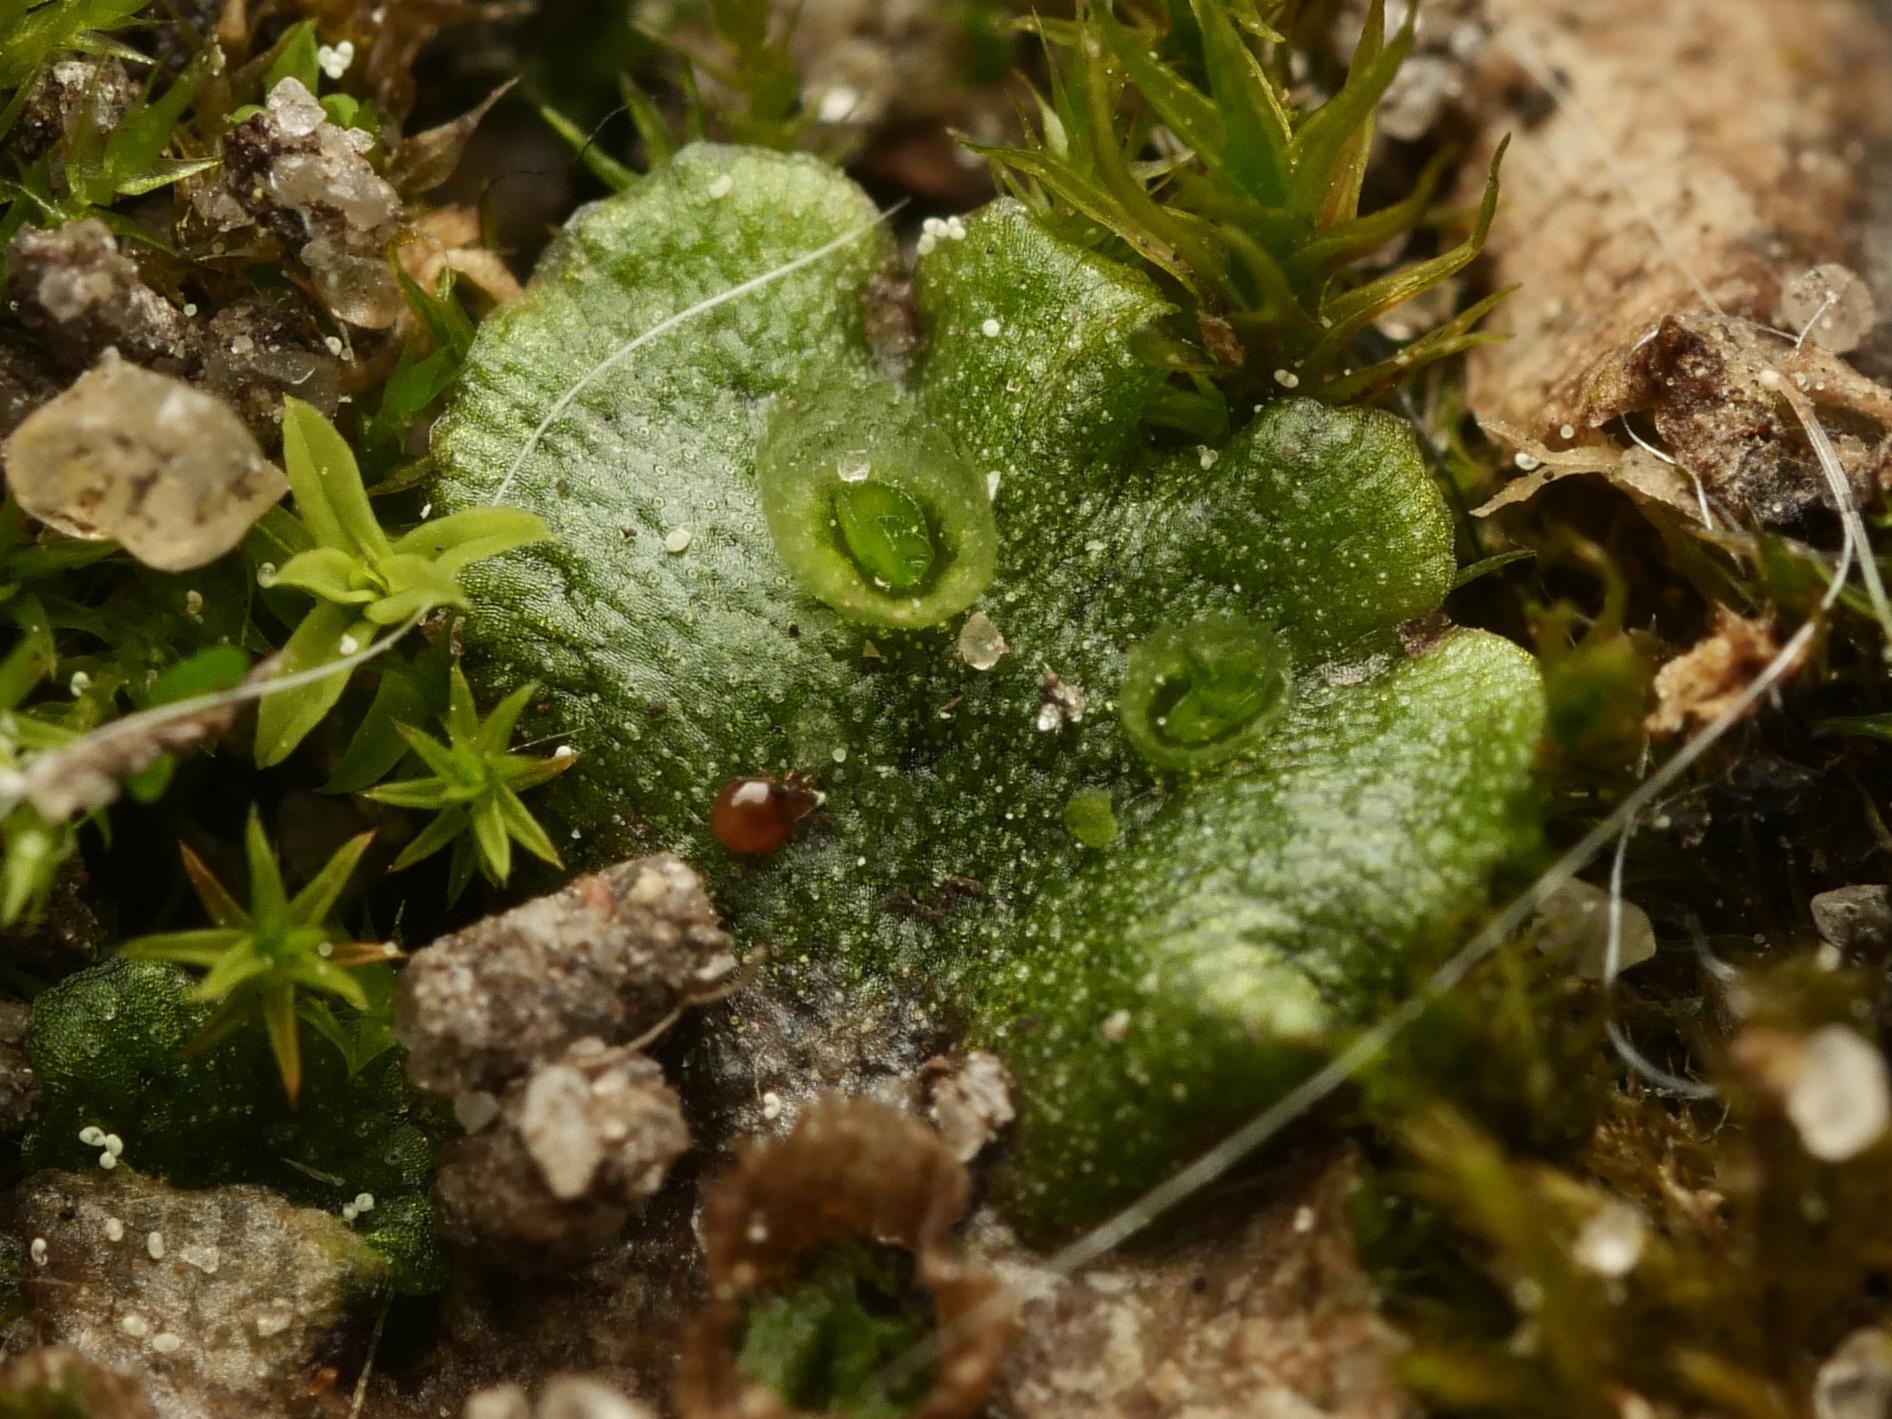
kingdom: Plantae
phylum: Marchantiophyta
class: Marchantiopsida
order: Marchantiales
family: Marchantiaceae
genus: Marchantia
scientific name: Marchantia polymorpha
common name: Common liverwort
